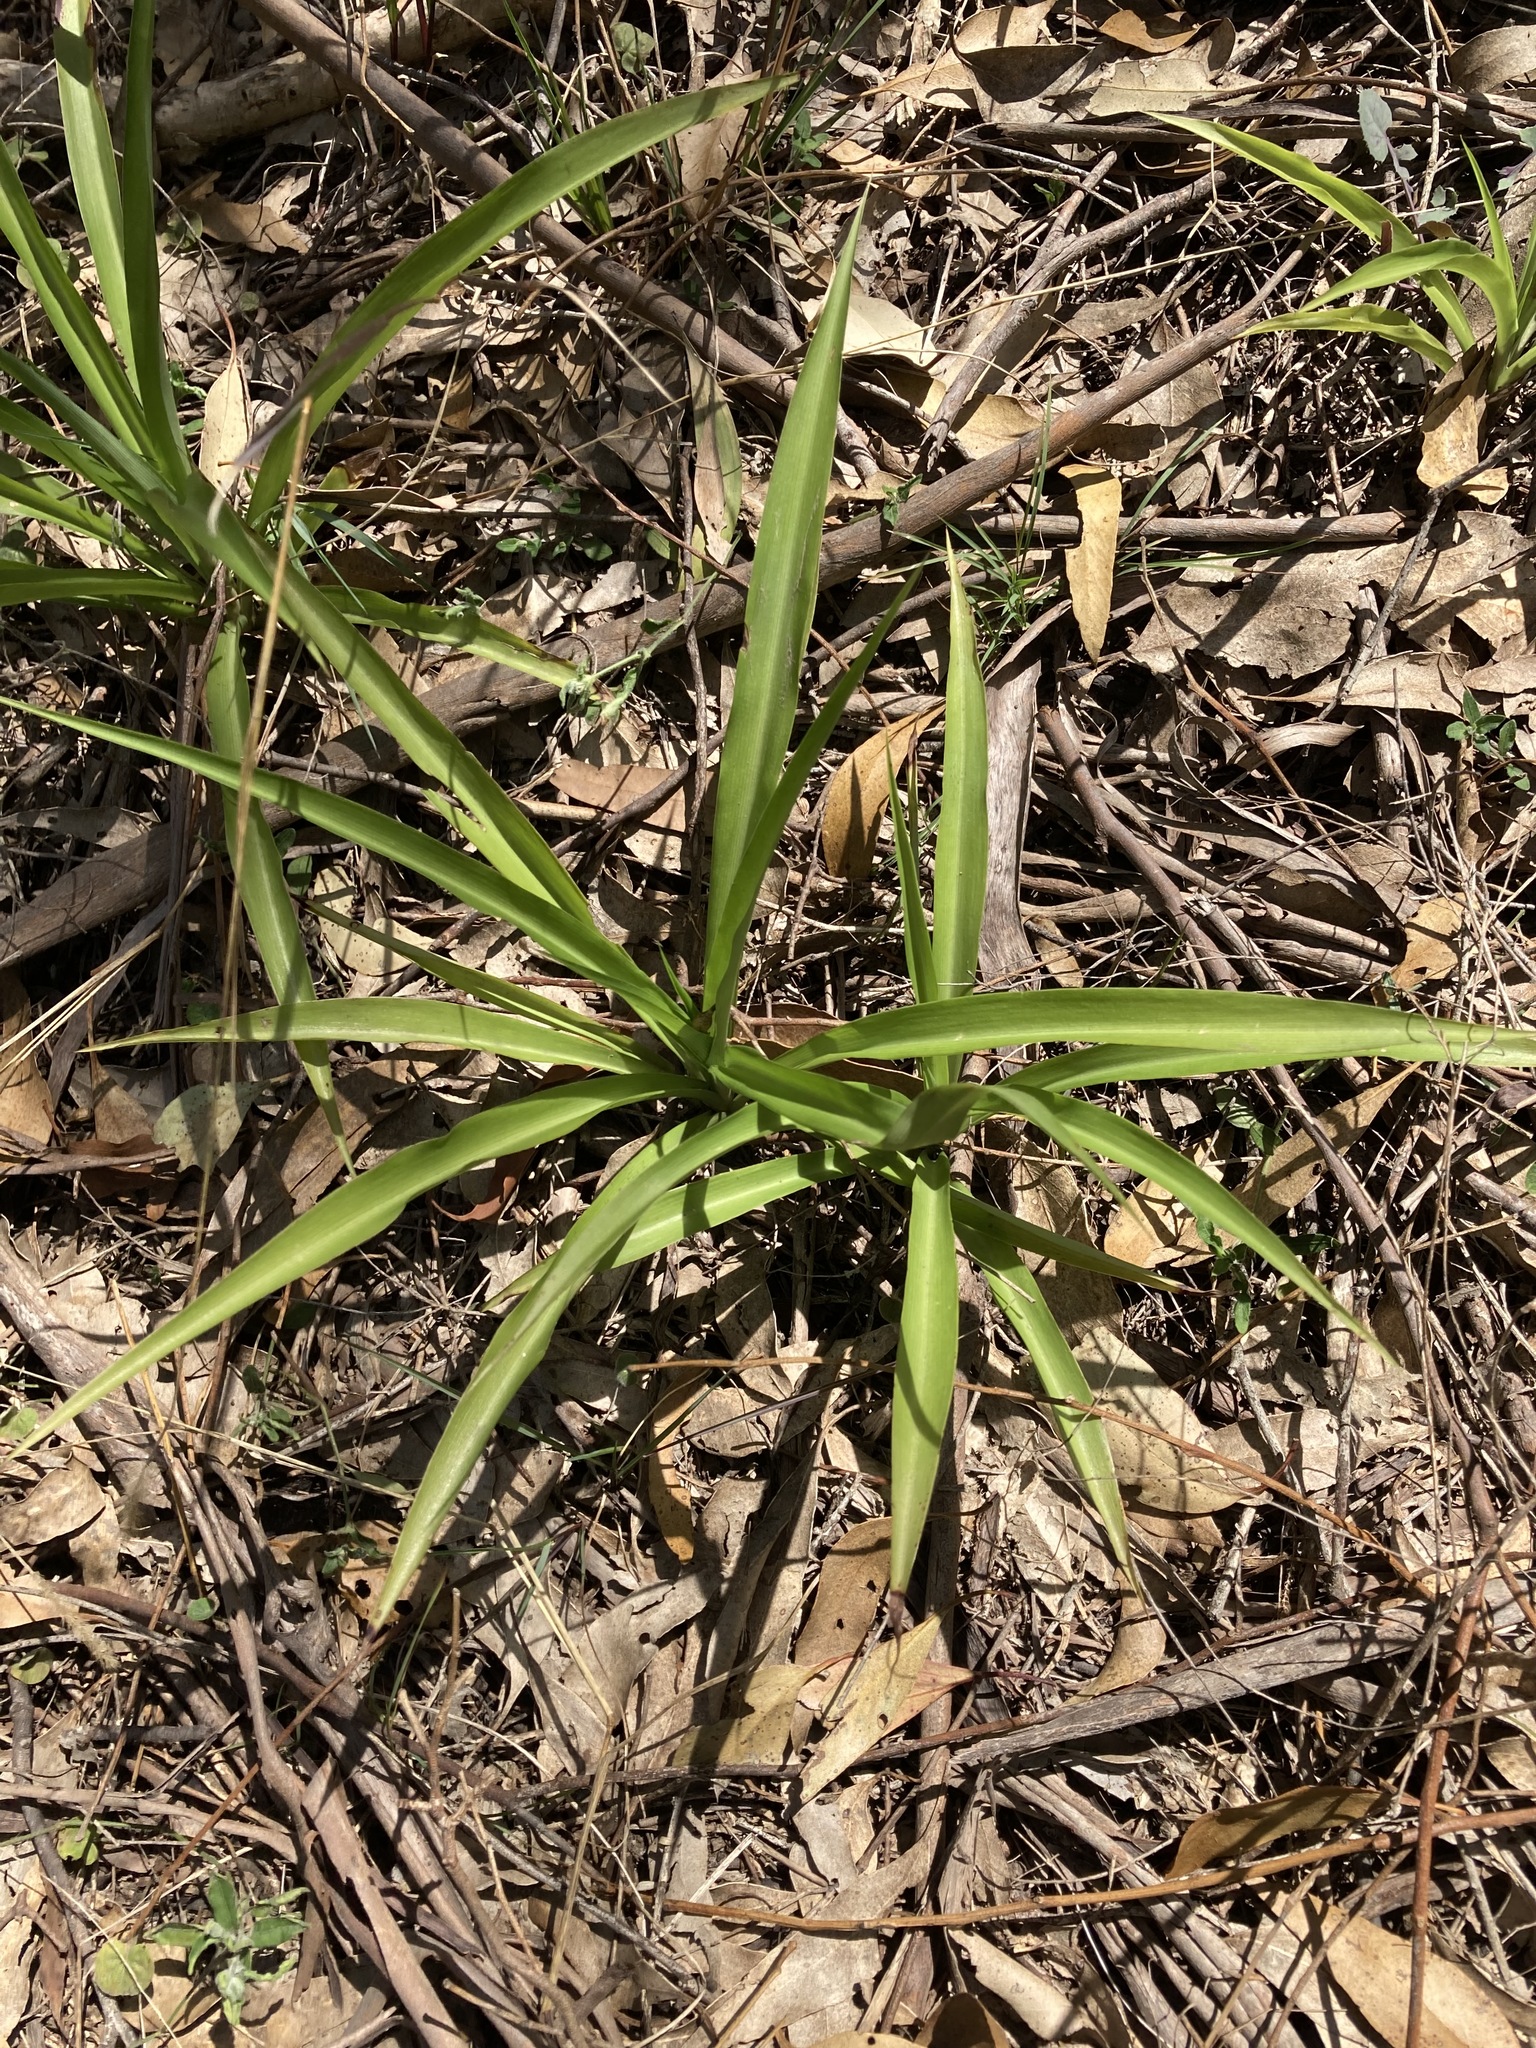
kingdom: Plantae
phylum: Tracheophyta
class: Liliopsida
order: Asparagales
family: Asparagaceae
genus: Chlorophytum
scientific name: Chlorophytum comosum
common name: Spider plant
